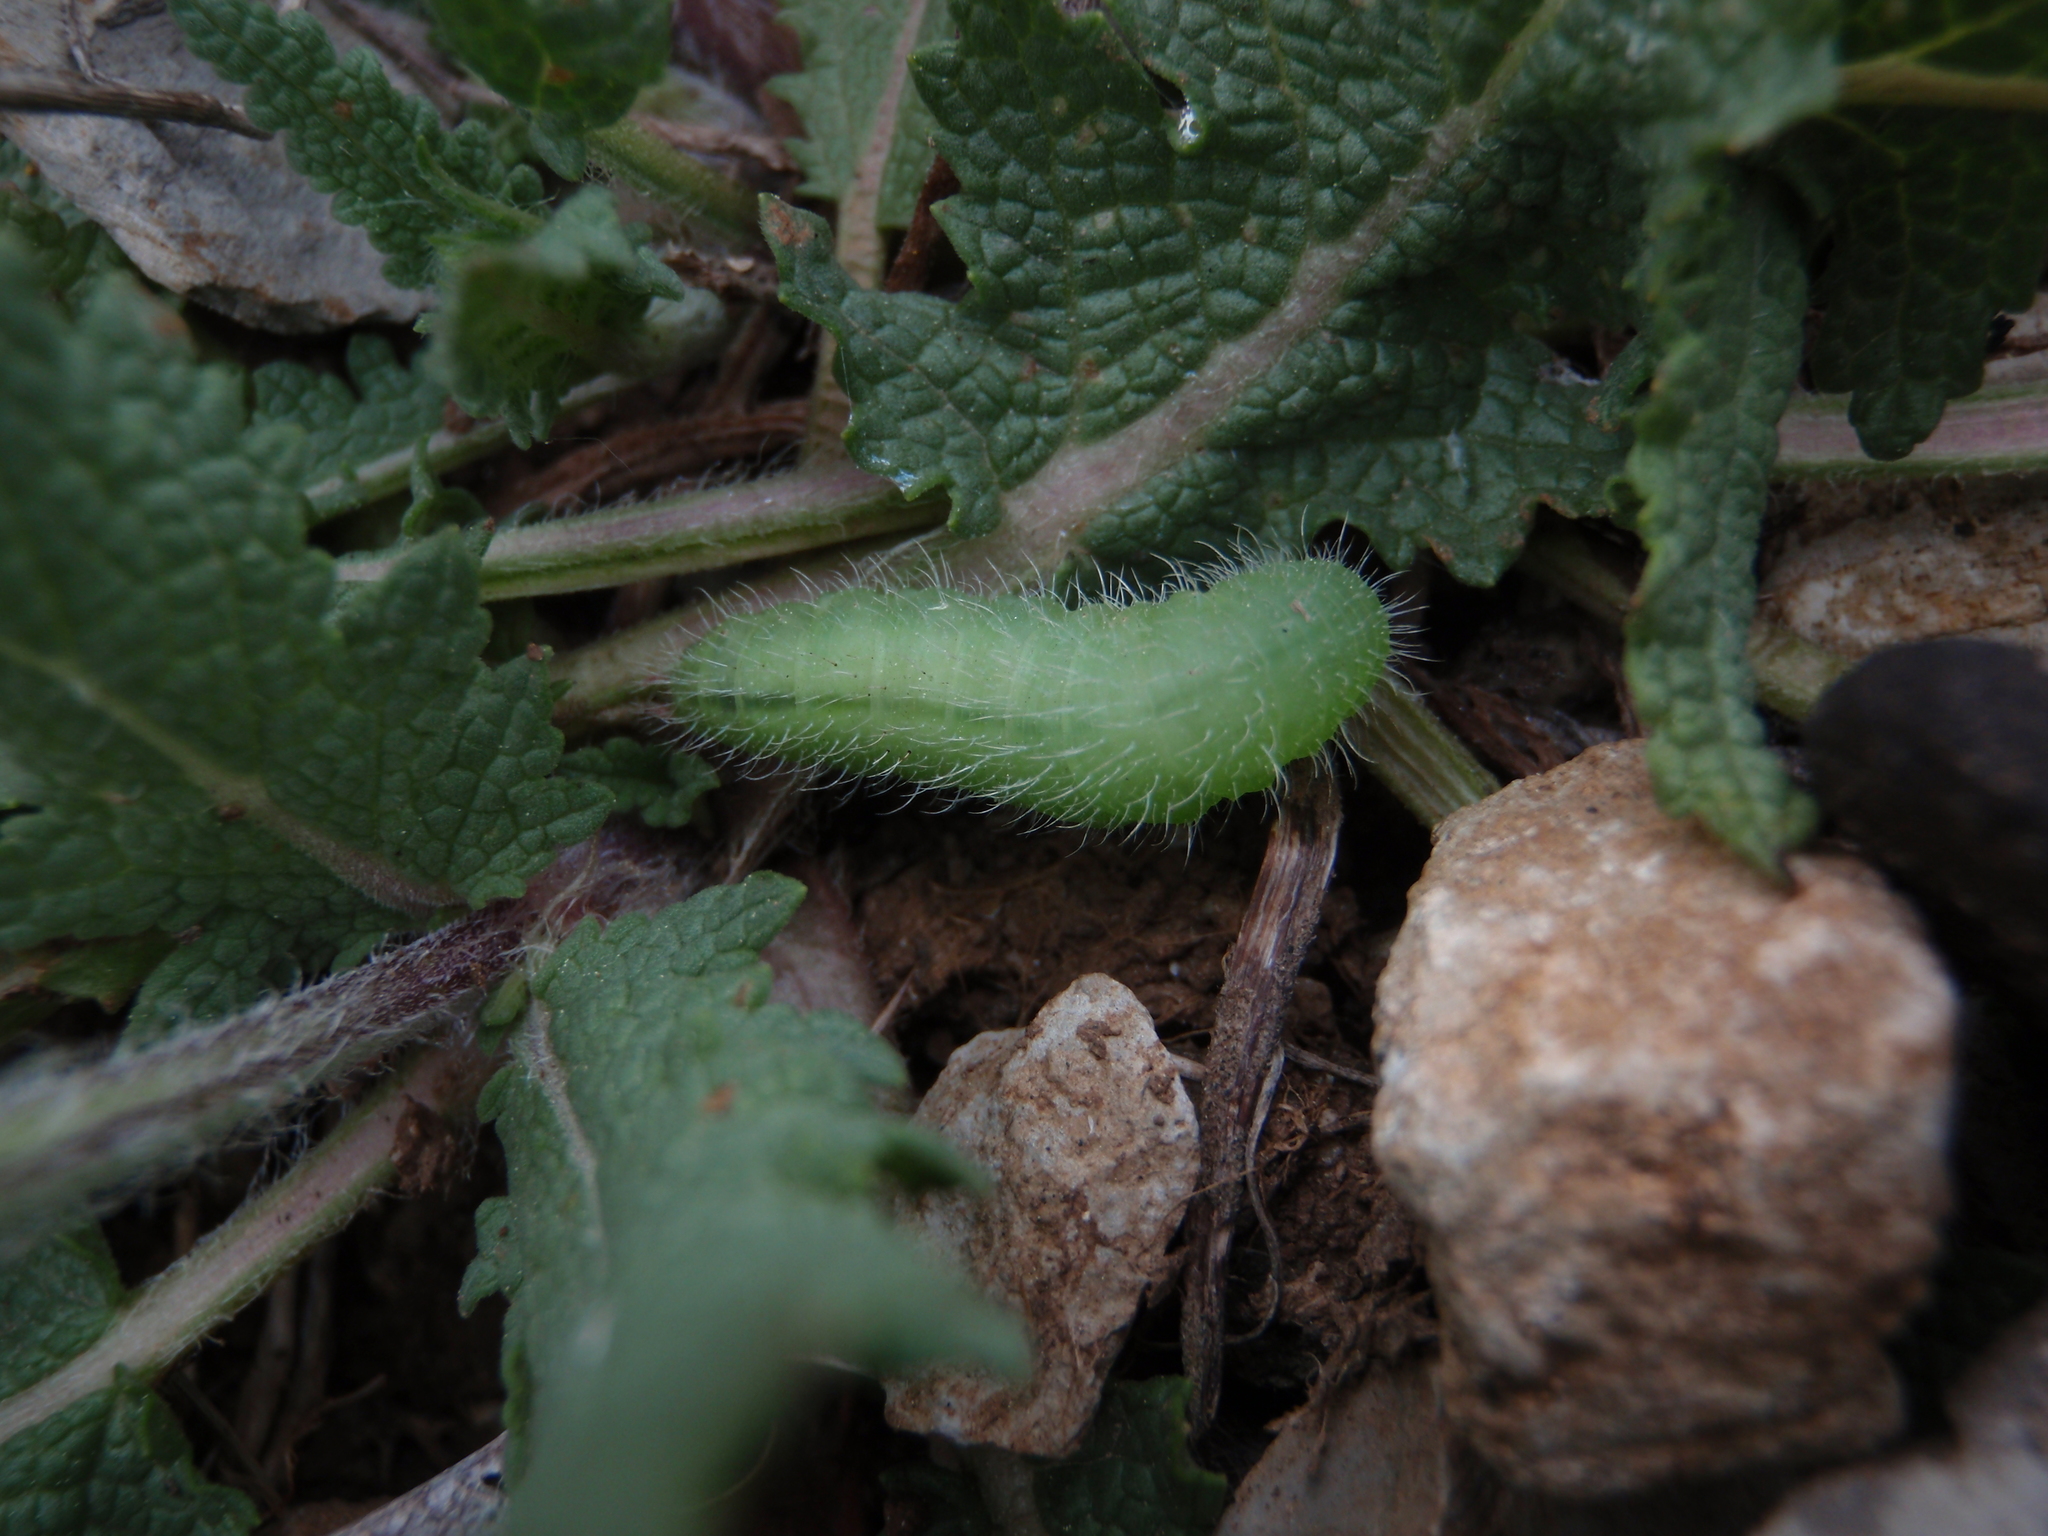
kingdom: Animalia
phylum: Arthropoda
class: Insecta
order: Lepidoptera
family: Nymphalidae
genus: Maniola
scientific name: Maniola jurtina
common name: Meadow brown
